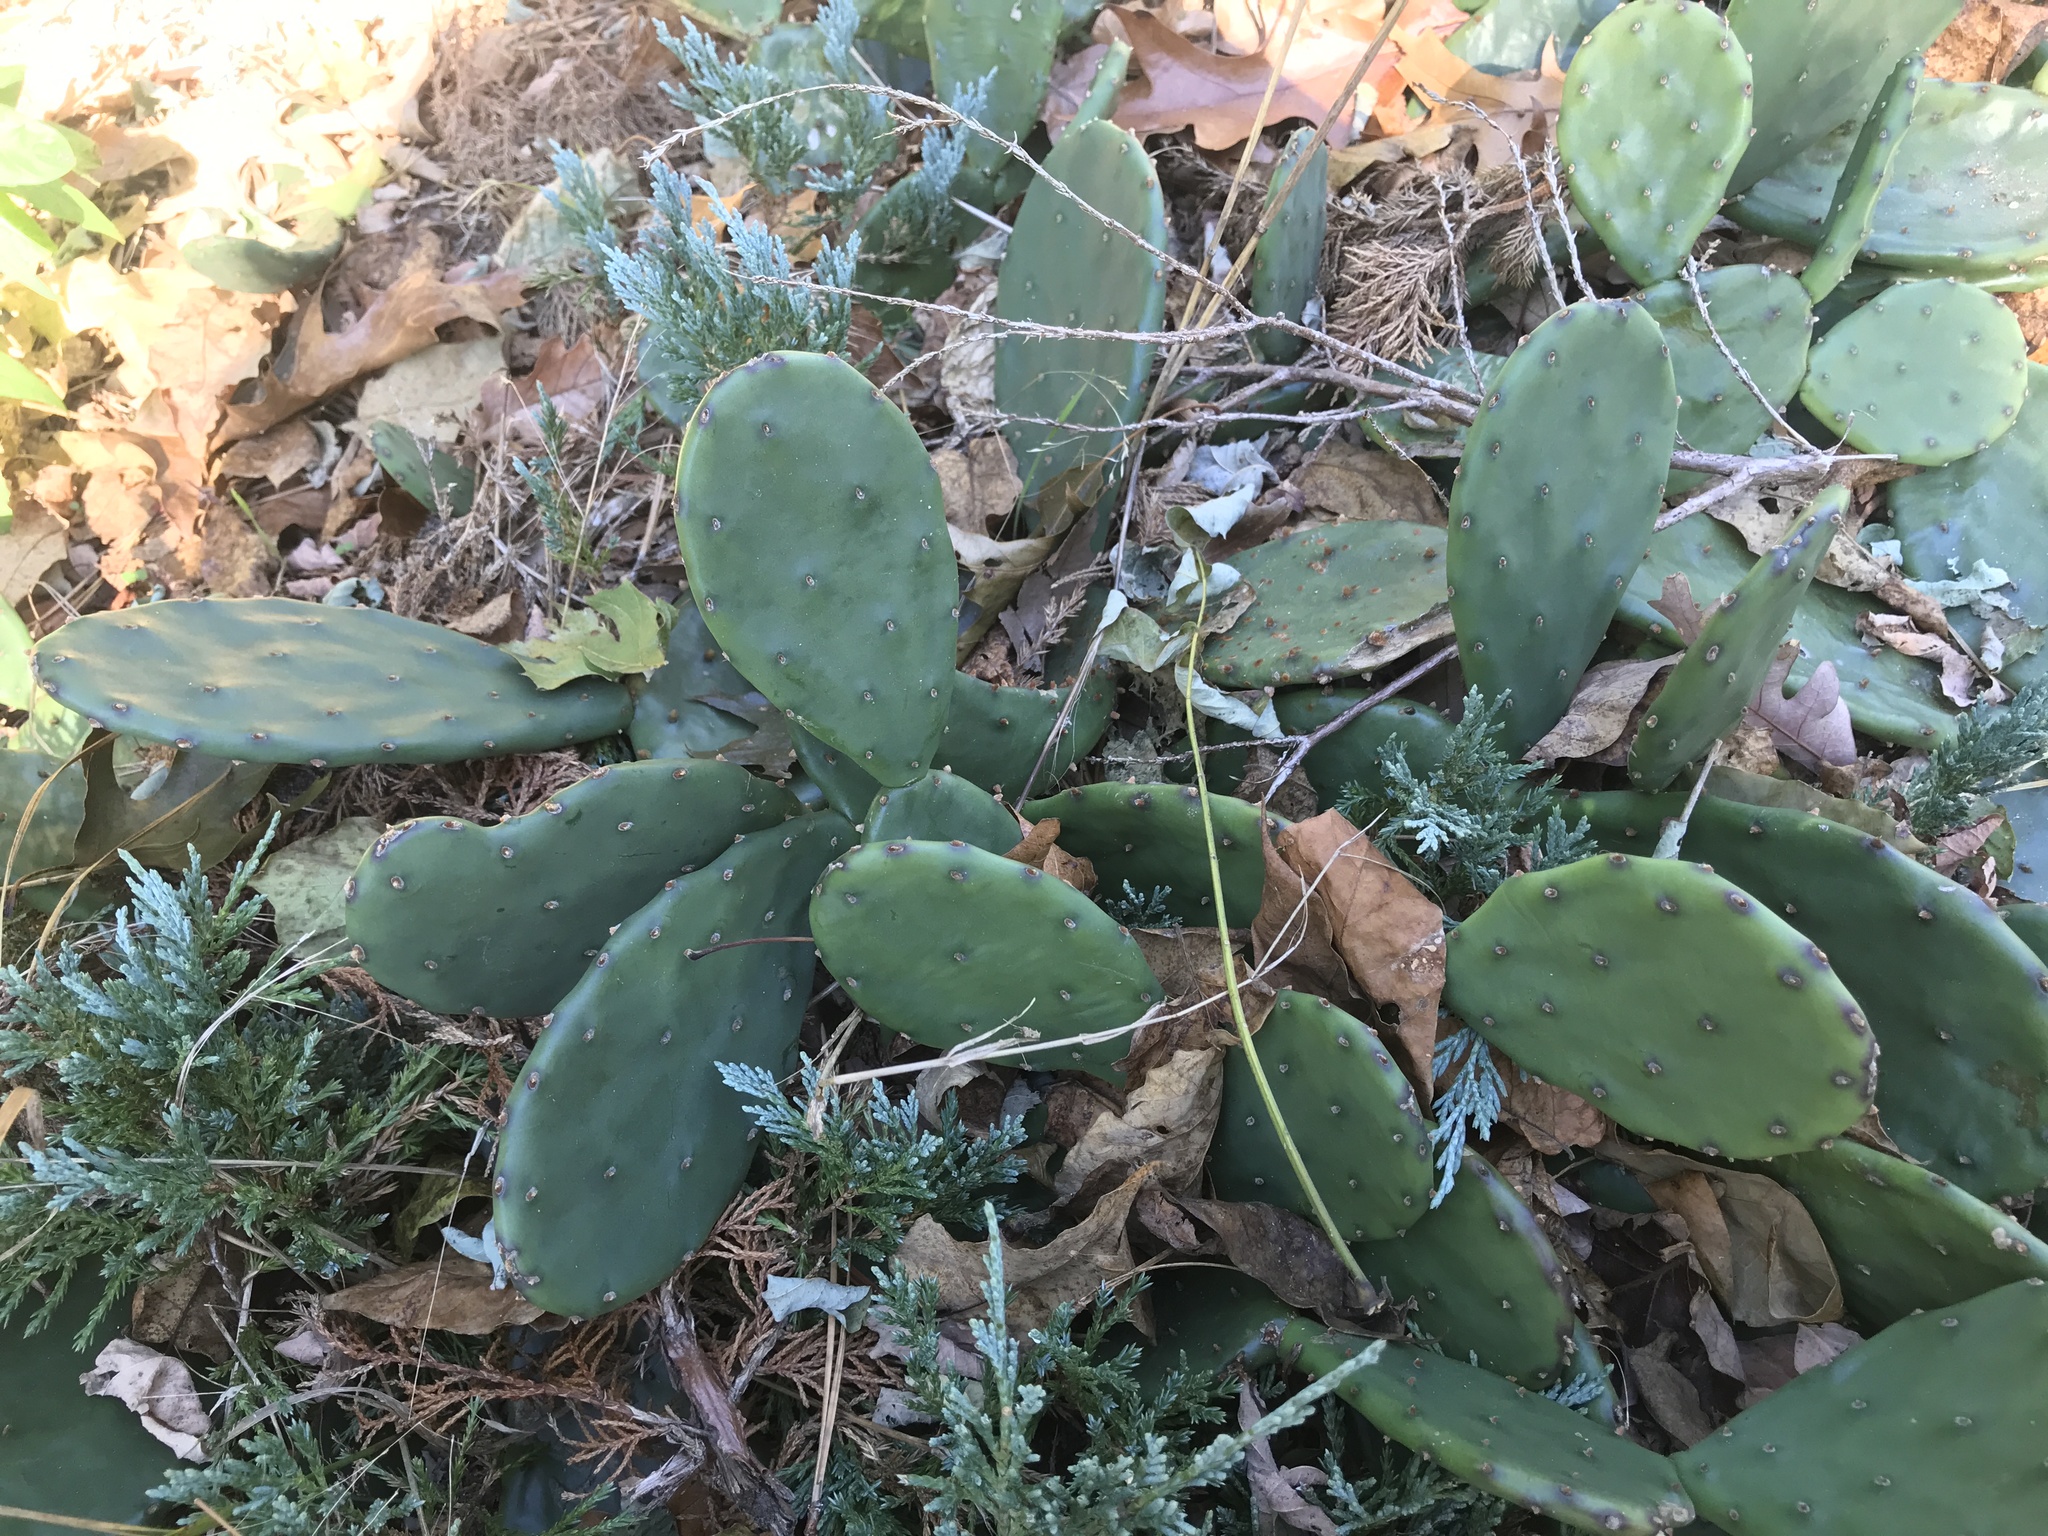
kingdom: Plantae
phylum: Tracheophyta
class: Magnoliopsida
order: Caryophyllales
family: Cactaceae
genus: Opuntia
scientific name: Opuntia humifusa
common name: Eastern prickly-pear
